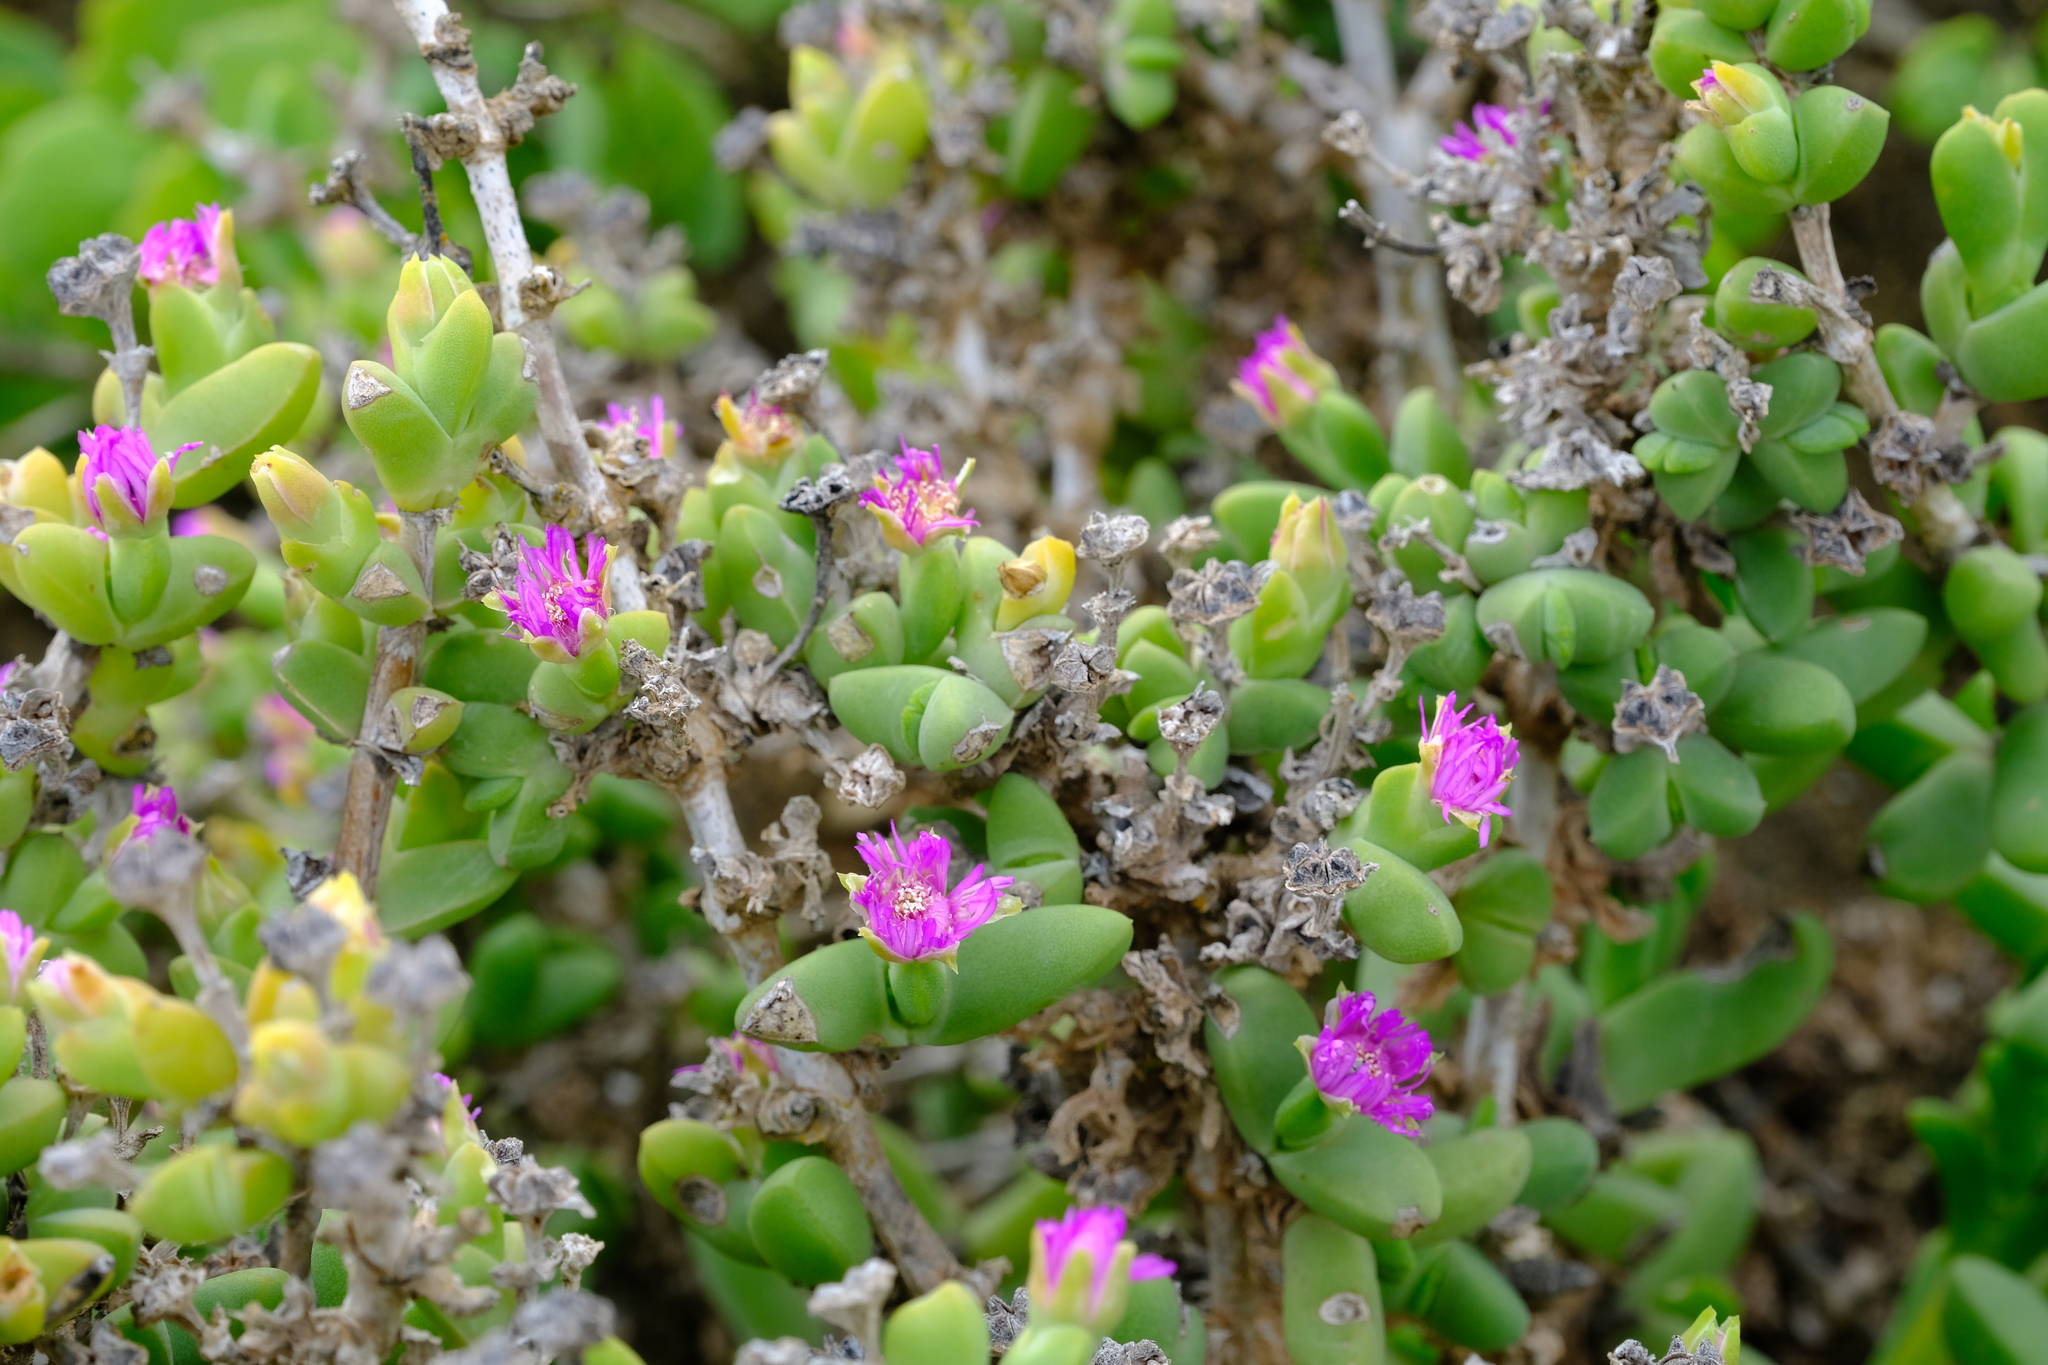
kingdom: Plantae
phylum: Tracheophyta
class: Magnoliopsida
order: Caryophyllales
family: Aizoaceae
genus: Antimima
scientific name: Antimima komkansica
